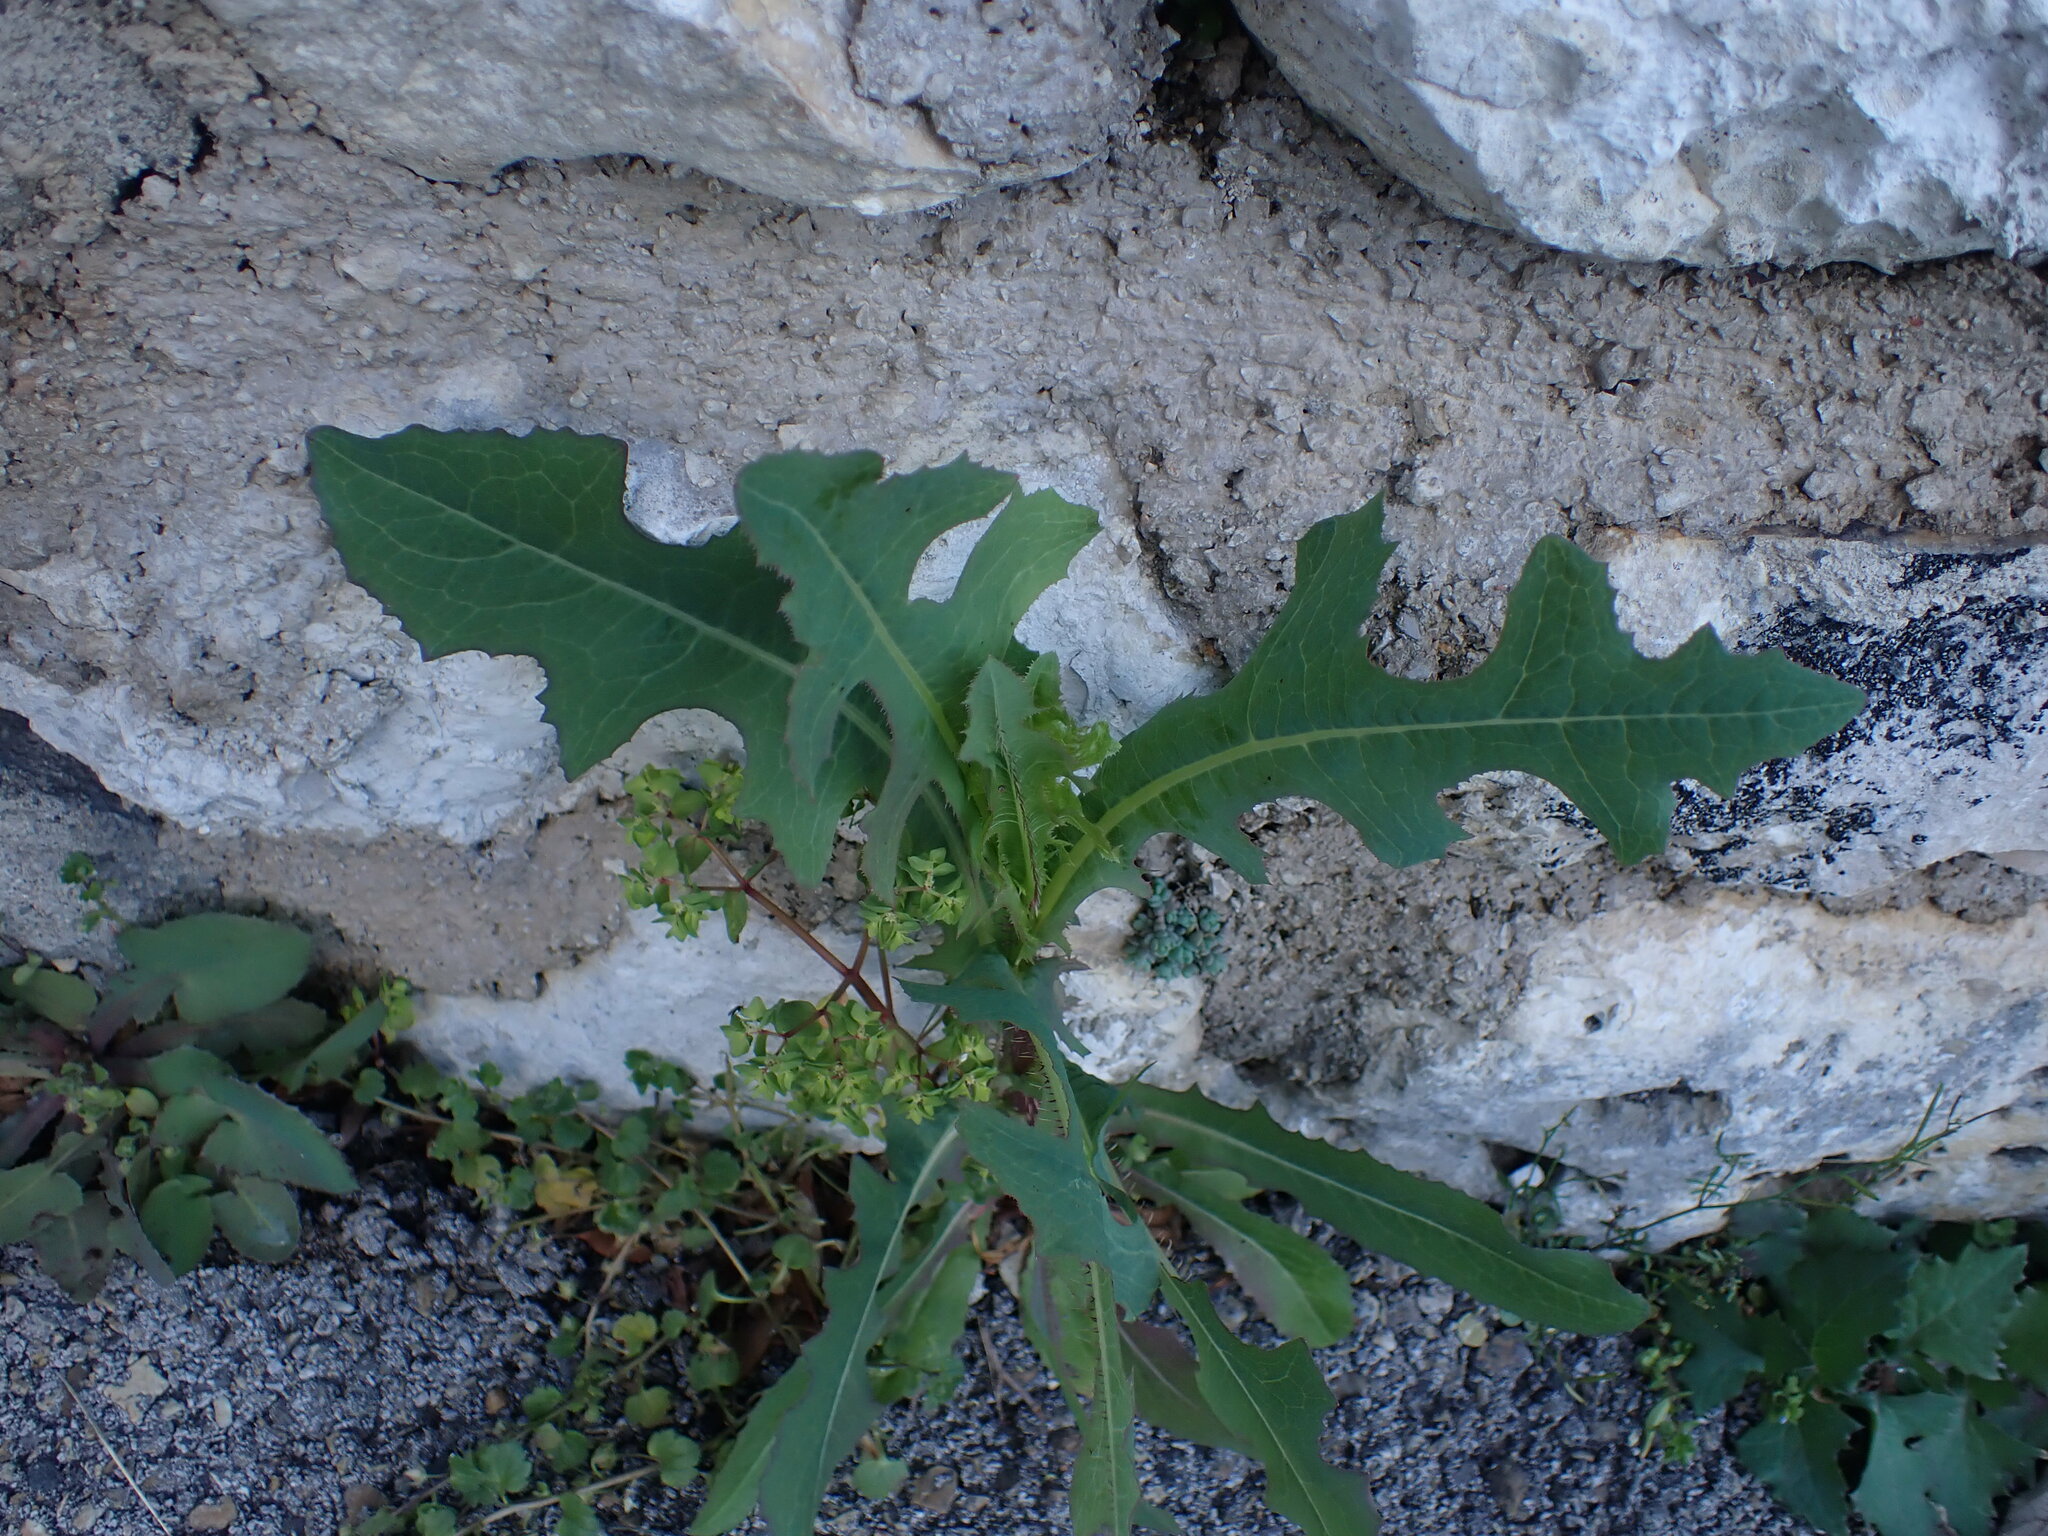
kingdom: Plantae
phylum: Tracheophyta
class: Magnoliopsida
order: Asterales
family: Asteraceae
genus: Lactuca
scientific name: Lactuca serriola
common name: Prickly lettuce
